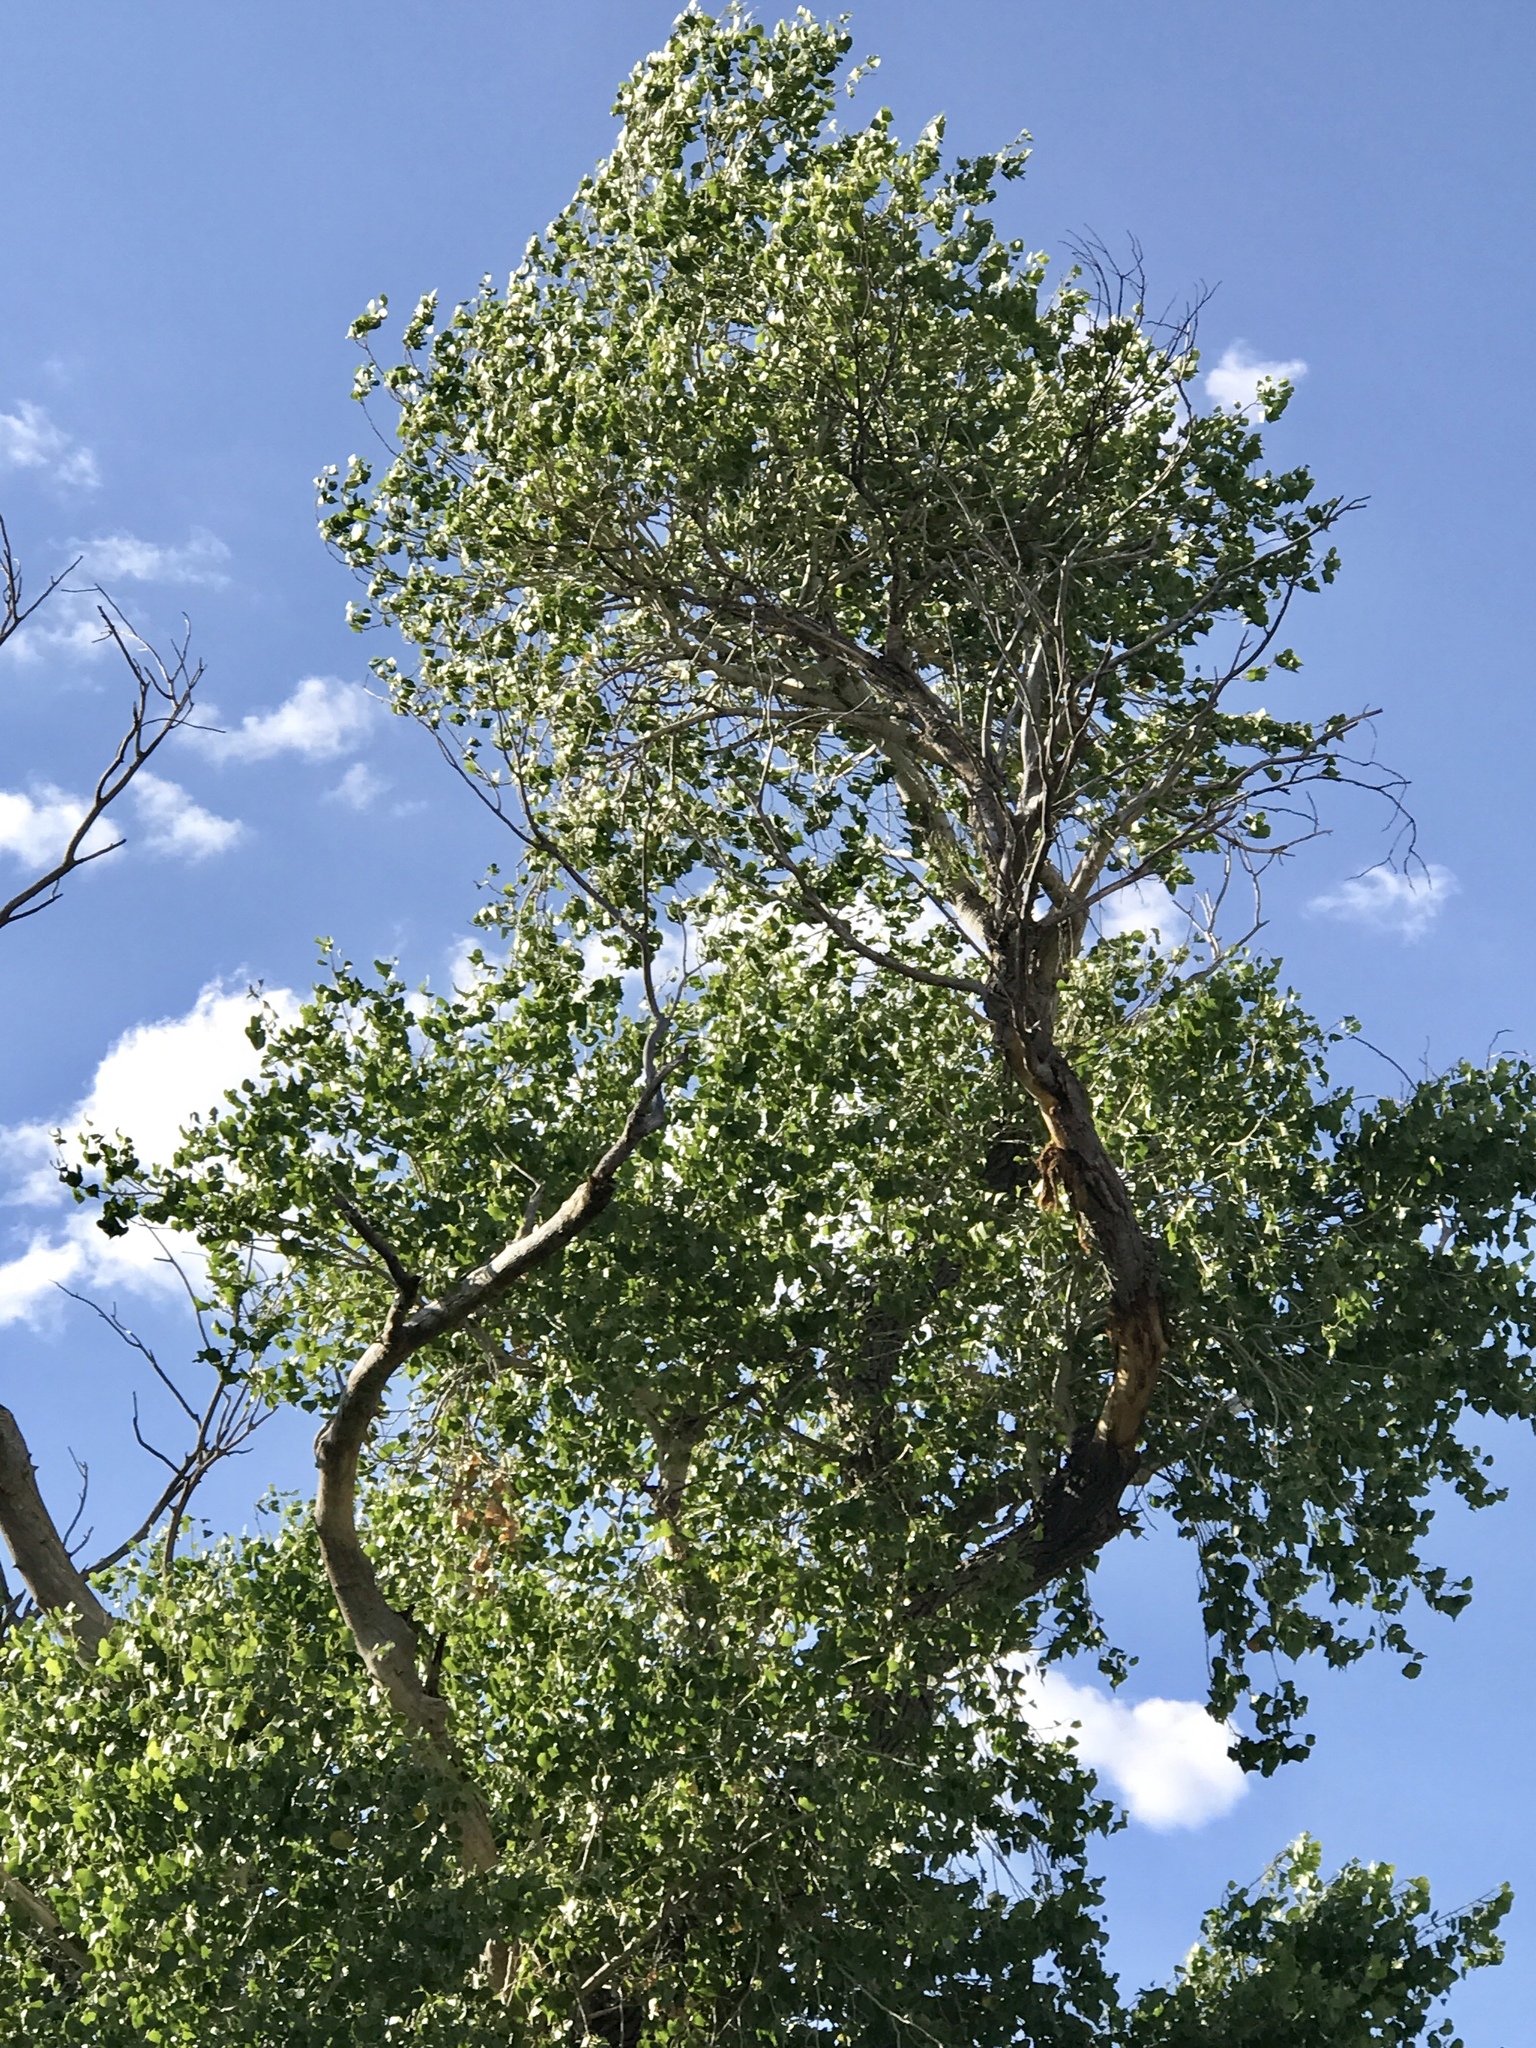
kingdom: Plantae
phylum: Tracheophyta
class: Magnoliopsida
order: Malpighiales
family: Salicaceae
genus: Populus
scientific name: Populus fremontii
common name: Fremont's cottonwood
